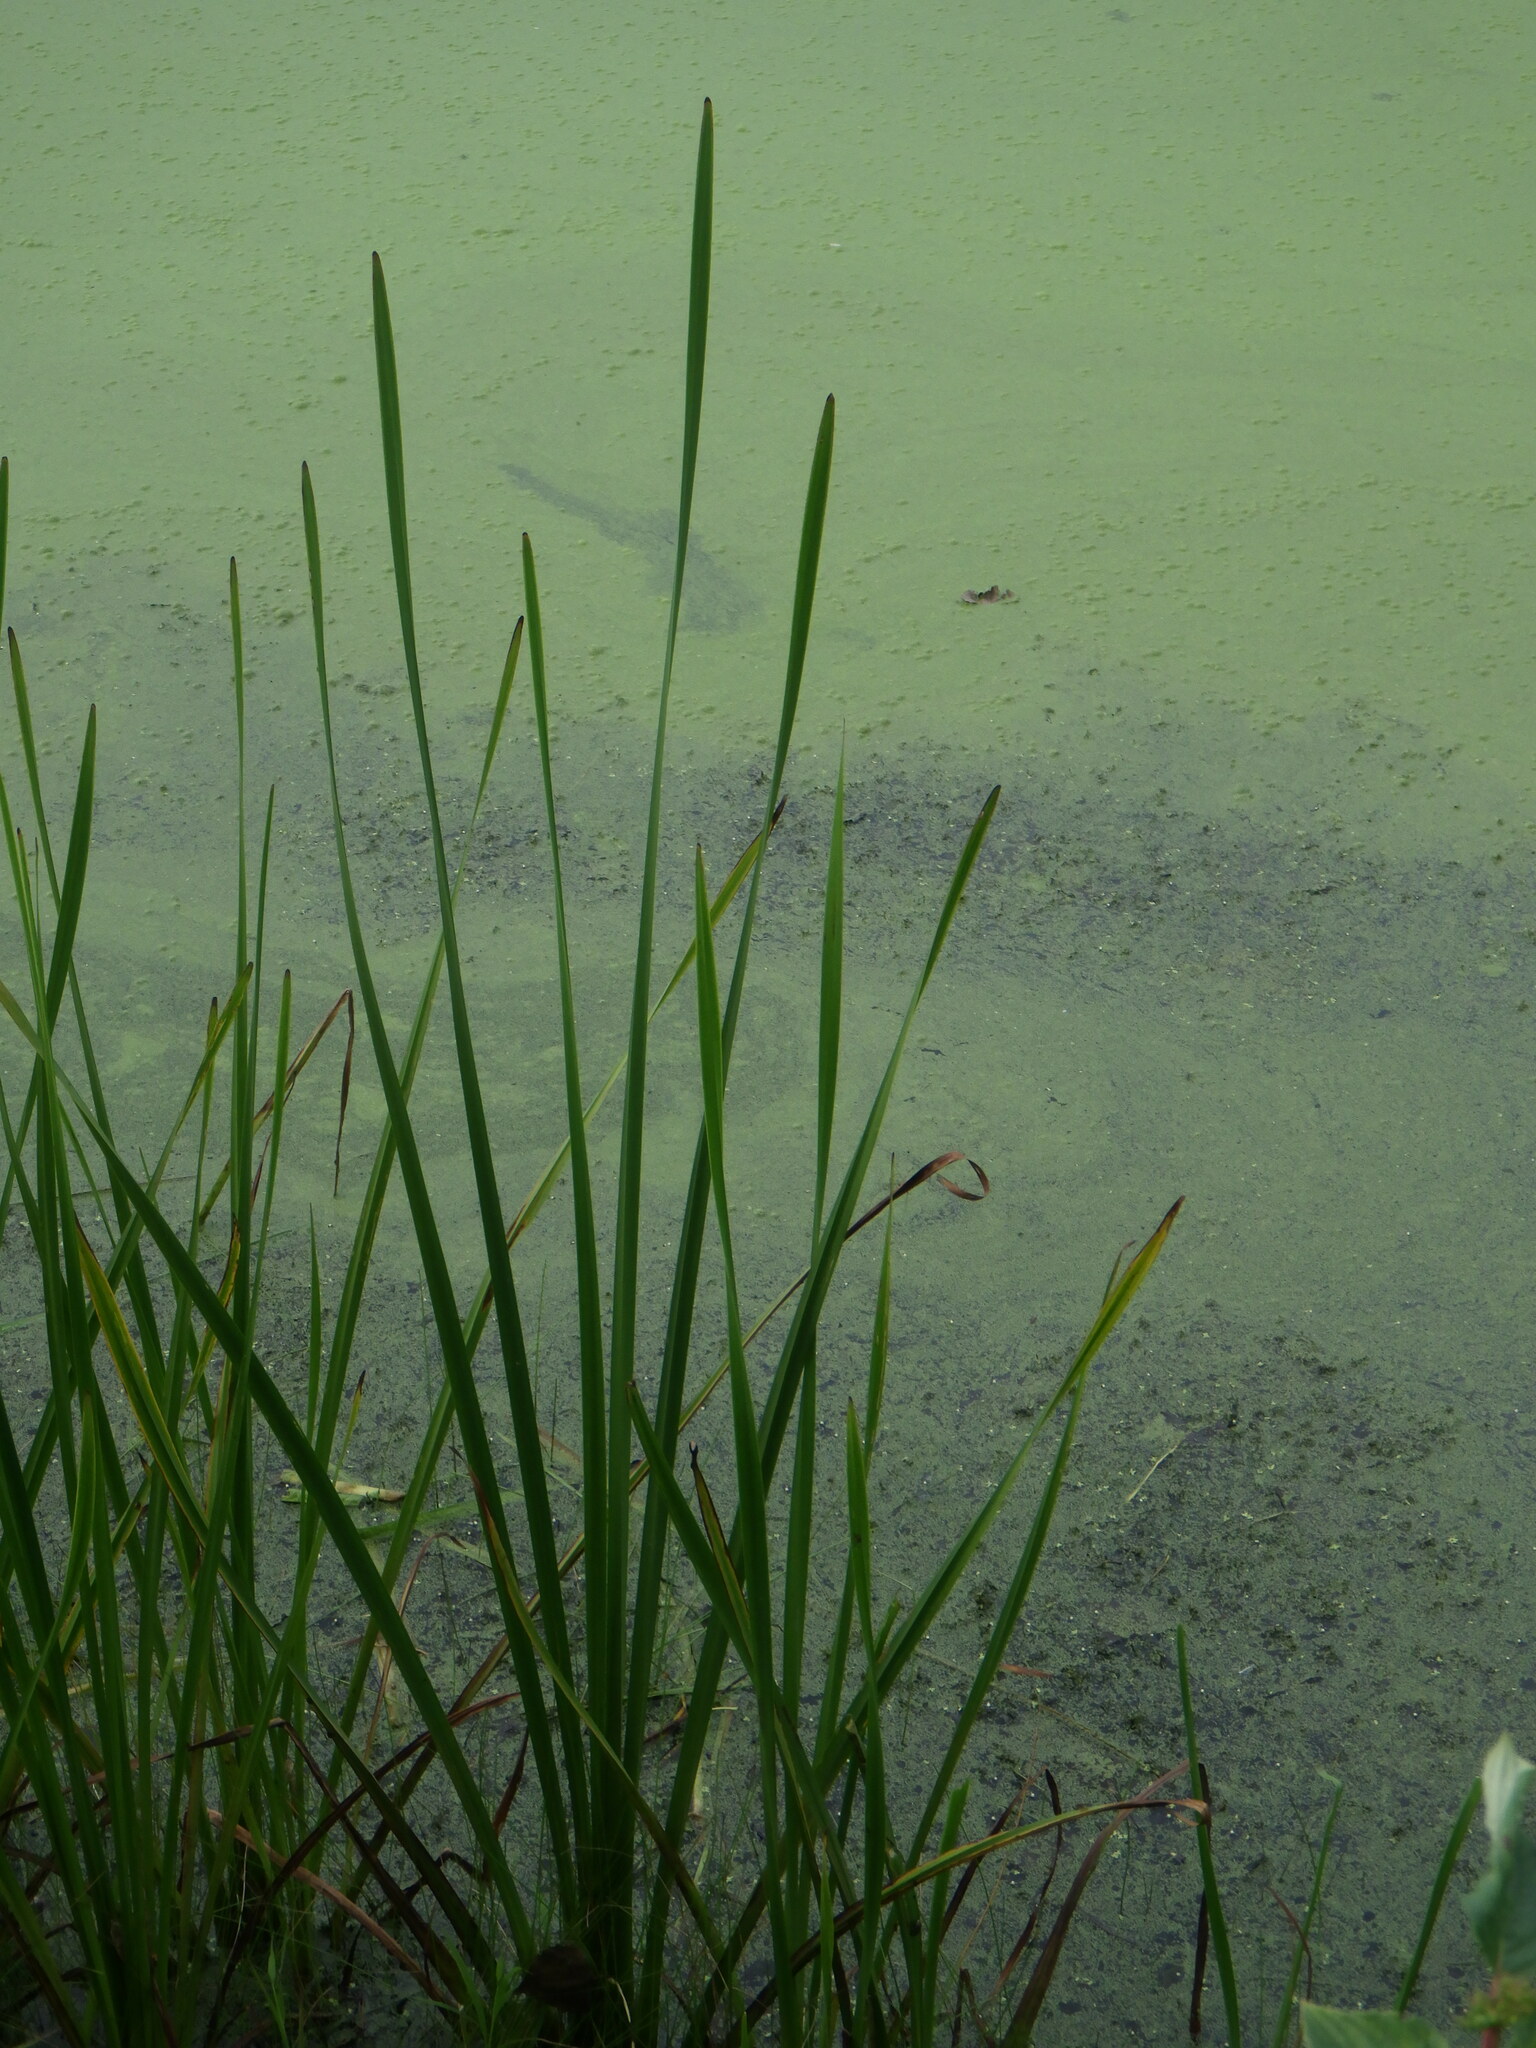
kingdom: Plantae
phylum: Tracheophyta
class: Liliopsida
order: Poales
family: Typhaceae
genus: Typha
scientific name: Typha angustifolia
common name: Lesser bulrush
